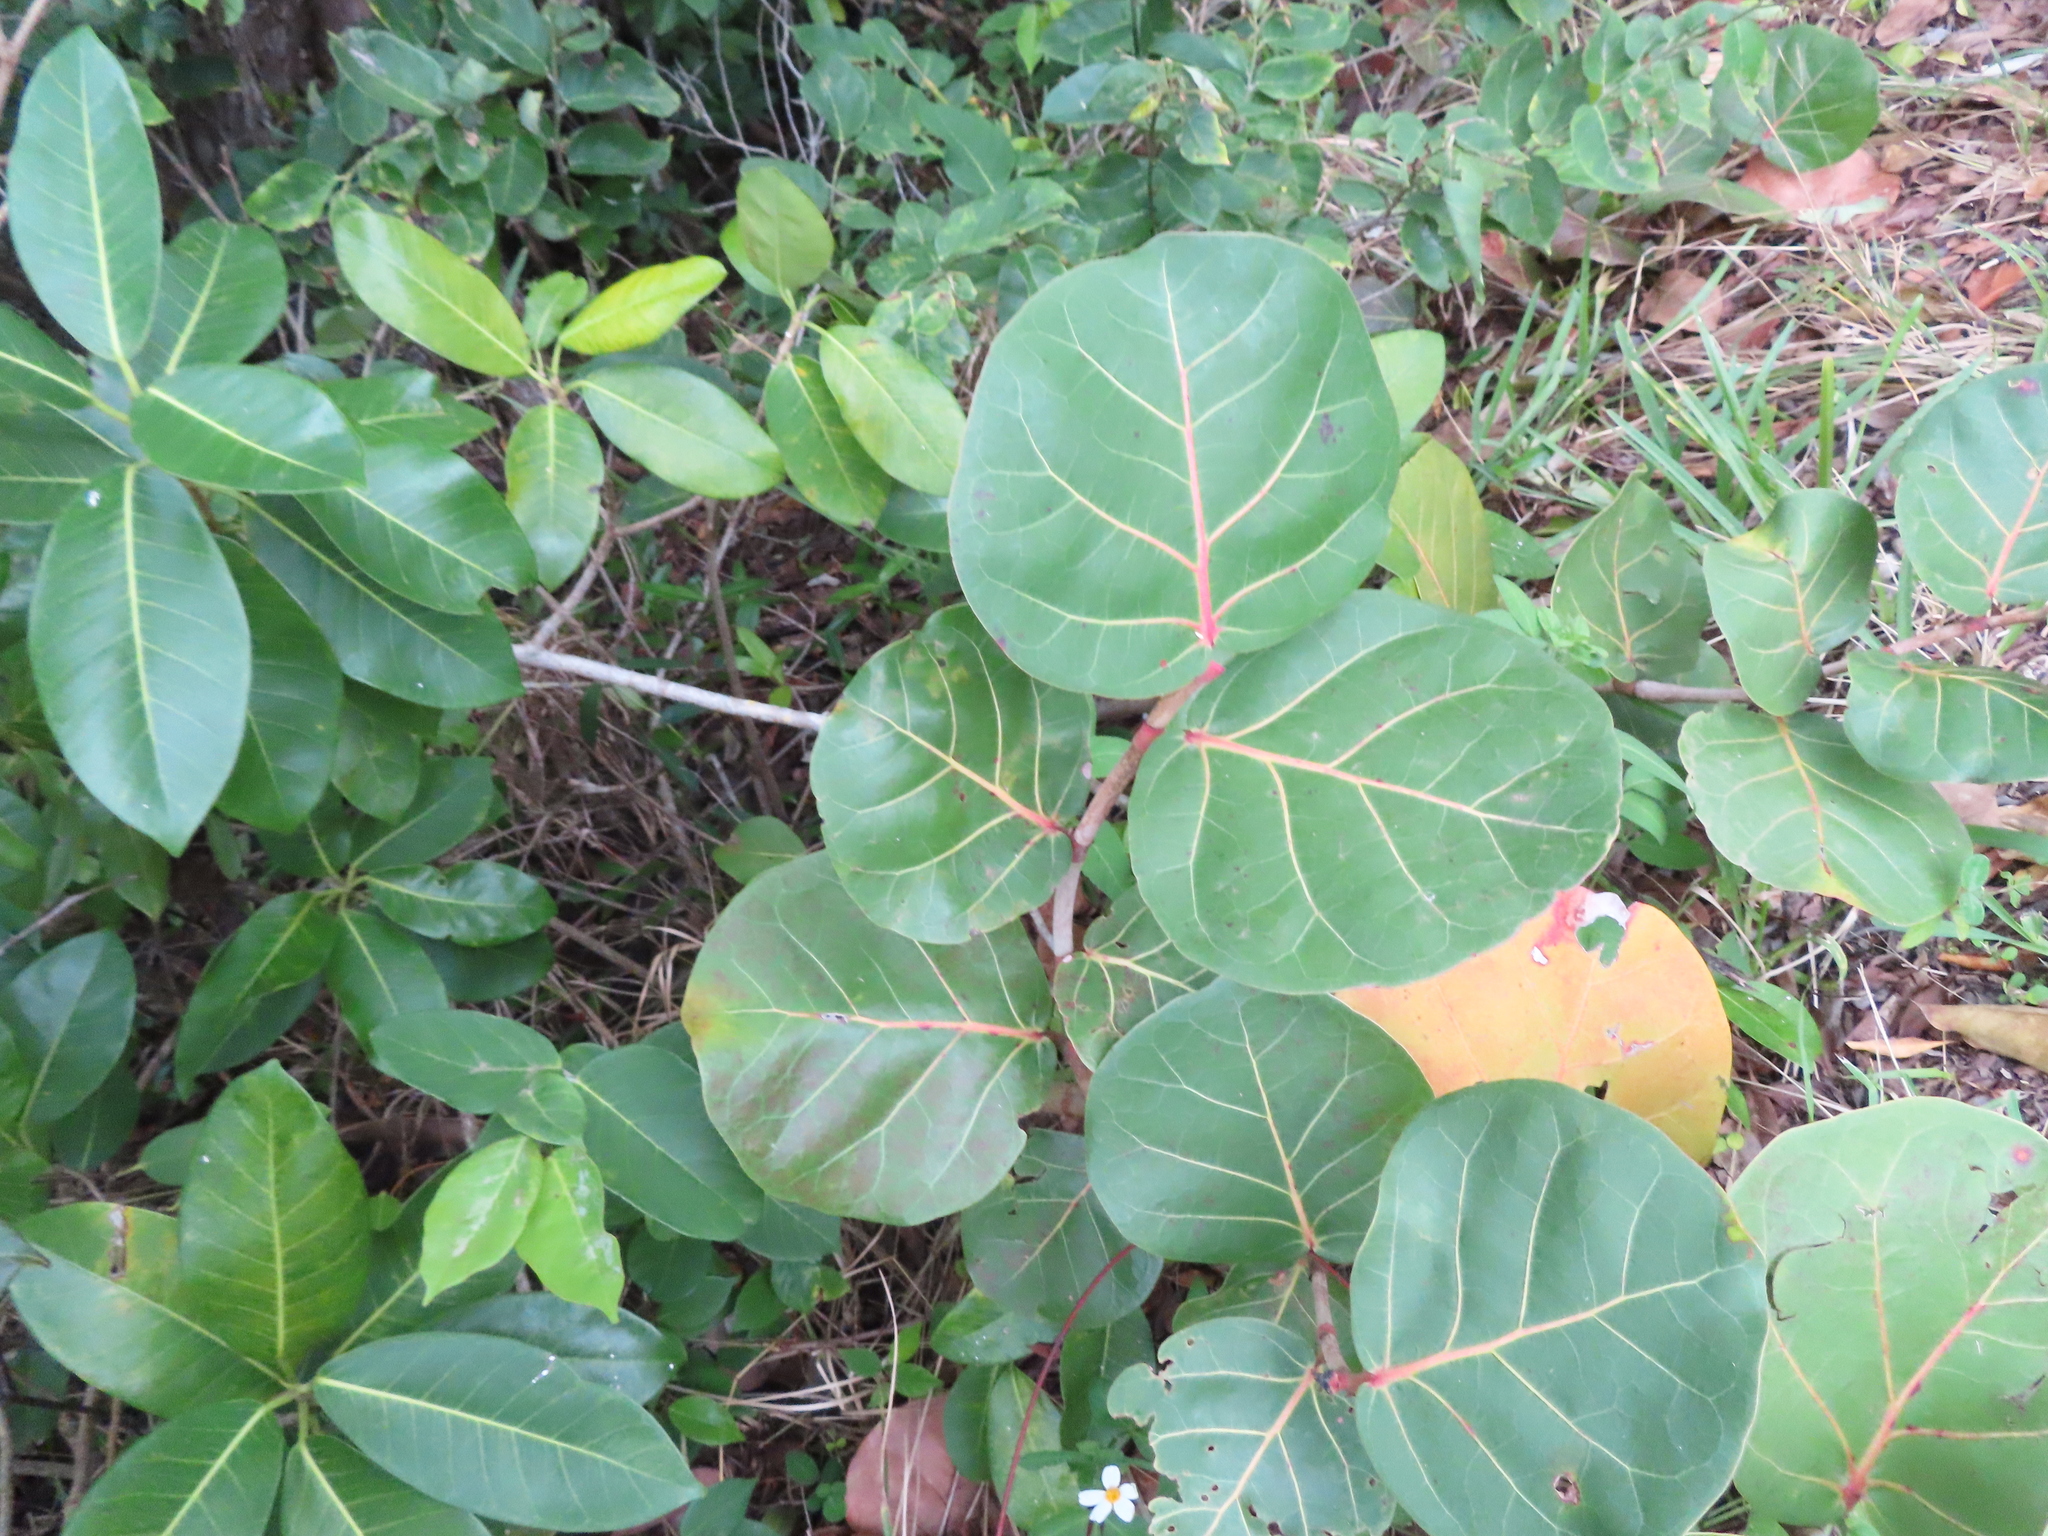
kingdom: Plantae
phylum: Tracheophyta
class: Magnoliopsida
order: Caryophyllales
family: Polygonaceae
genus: Coccoloba
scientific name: Coccoloba uvifera
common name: Seagrape
